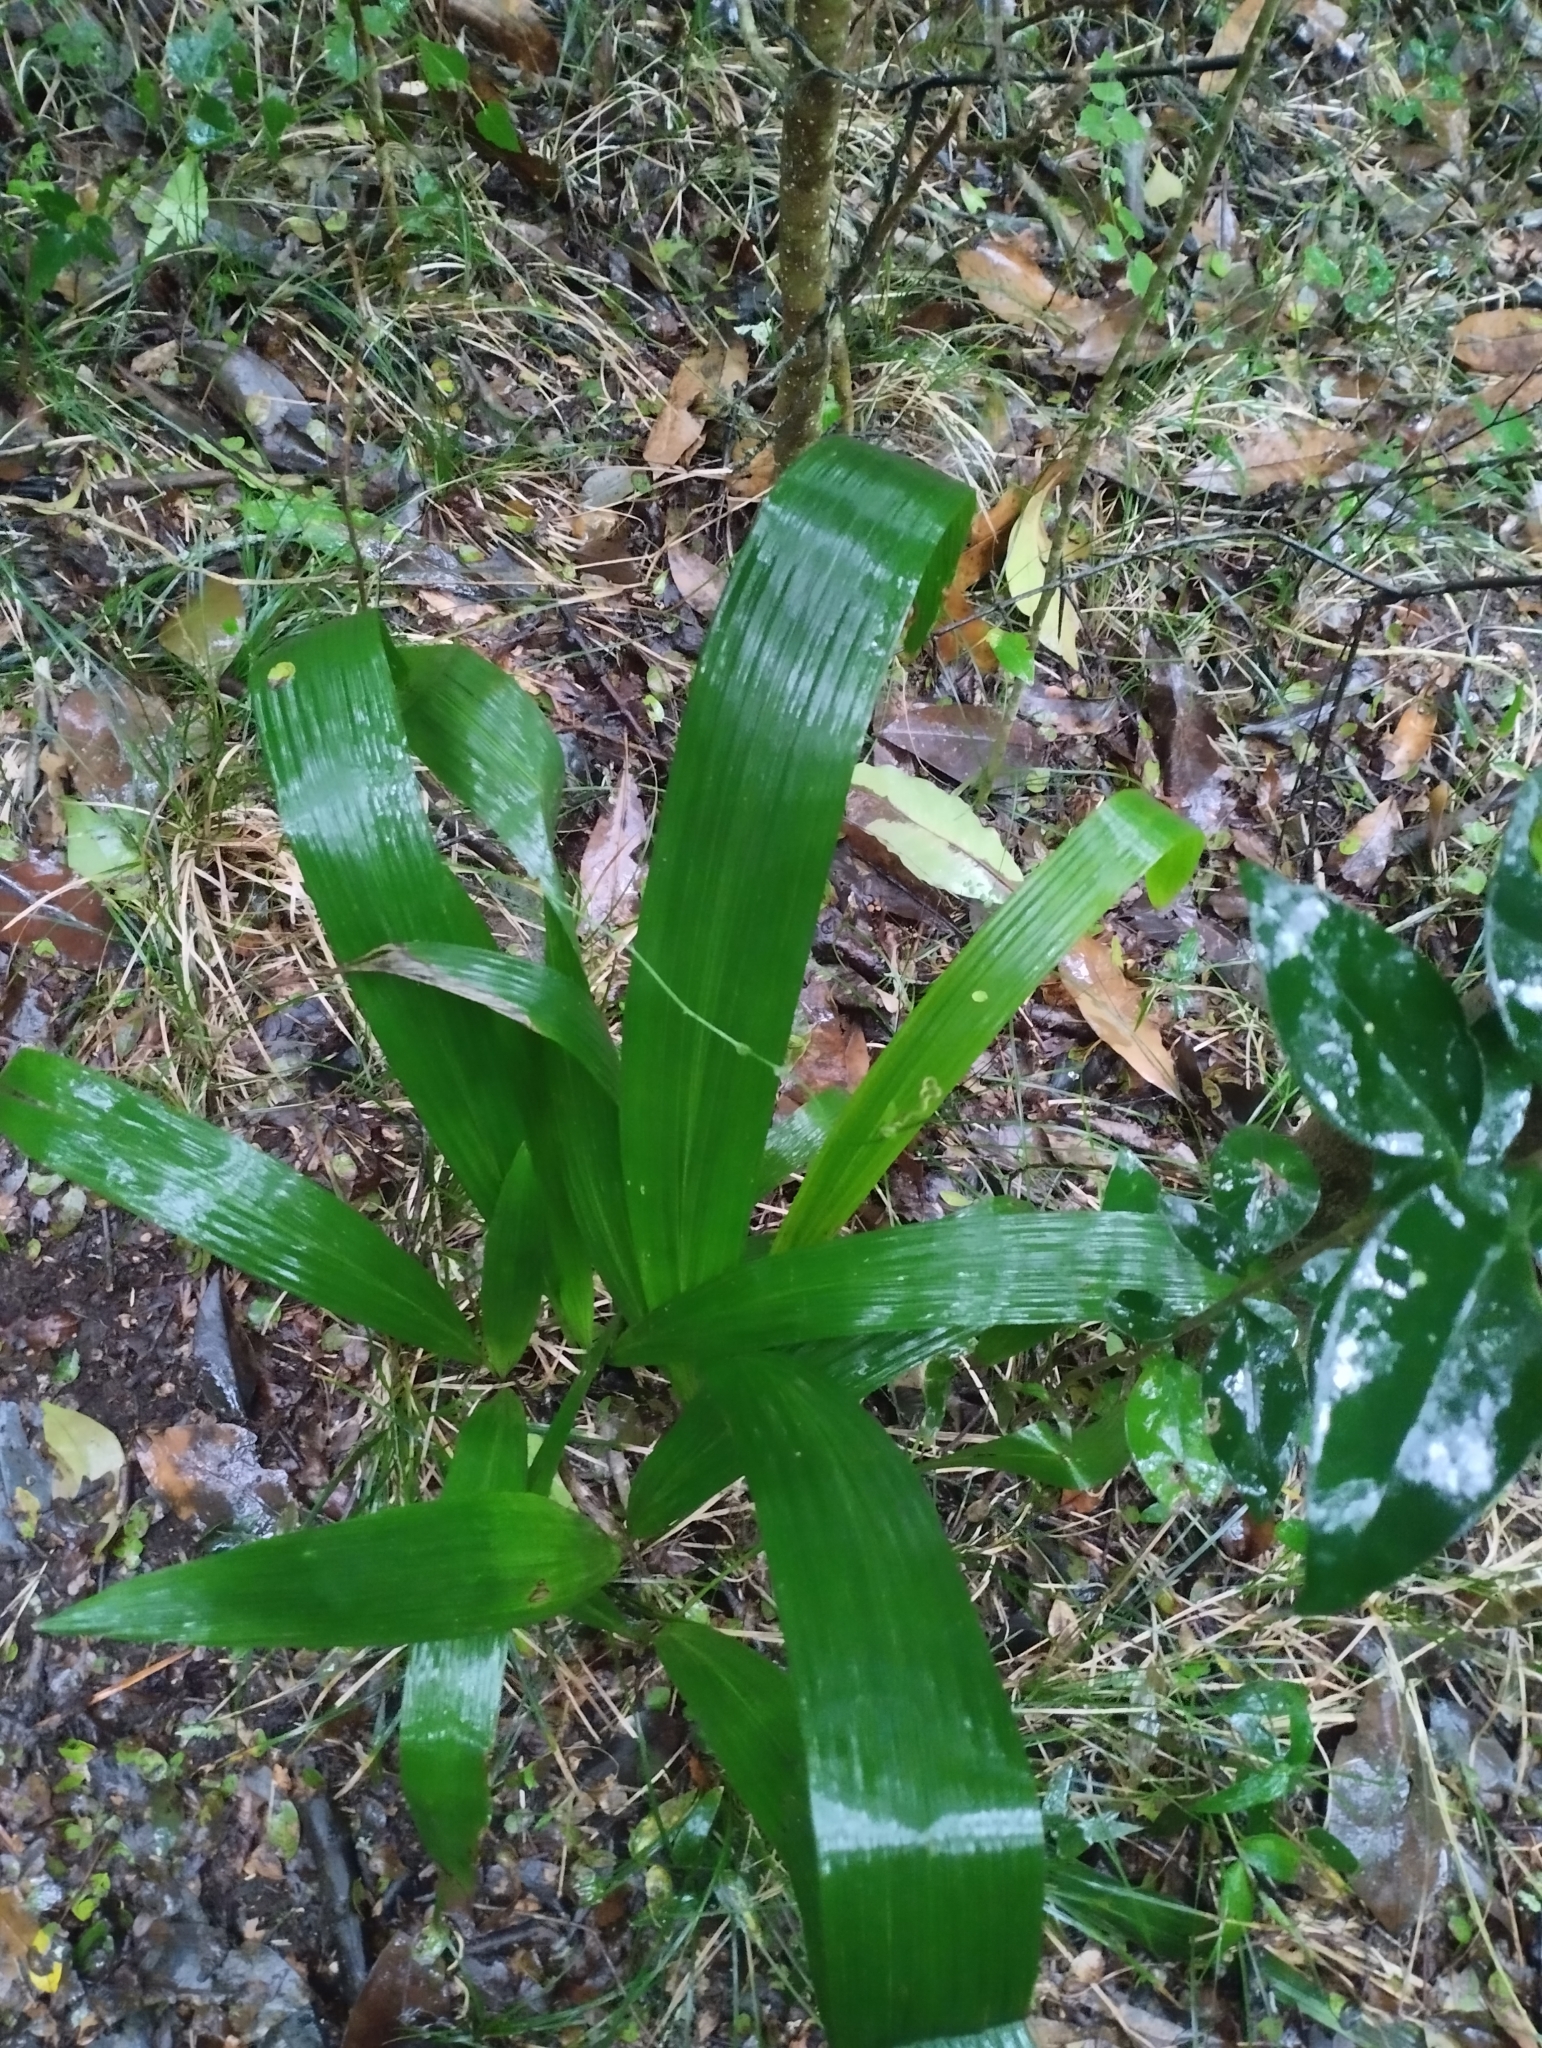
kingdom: Plantae
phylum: Tracheophyta
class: Liliopsida
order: Arecales
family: Arecaceae
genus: Syagrus
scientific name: Syagrus romanzoffiana
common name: Queen palm
